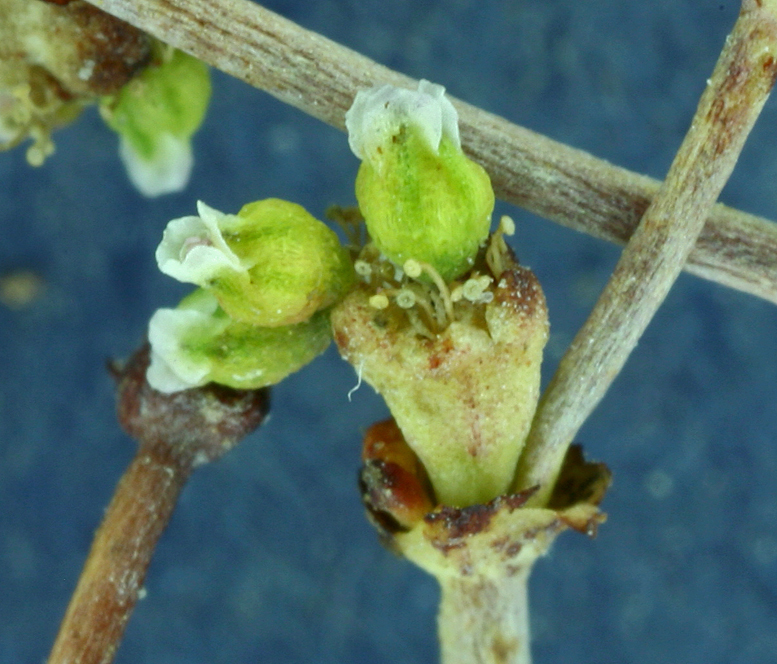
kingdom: Plantae
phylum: Tracheophyta
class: Magnoliopsida
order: Caryophyllales
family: Polygonaceae
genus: Eriogonum
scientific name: Eriogonum ampullaceum
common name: Mono wild buckwheat
